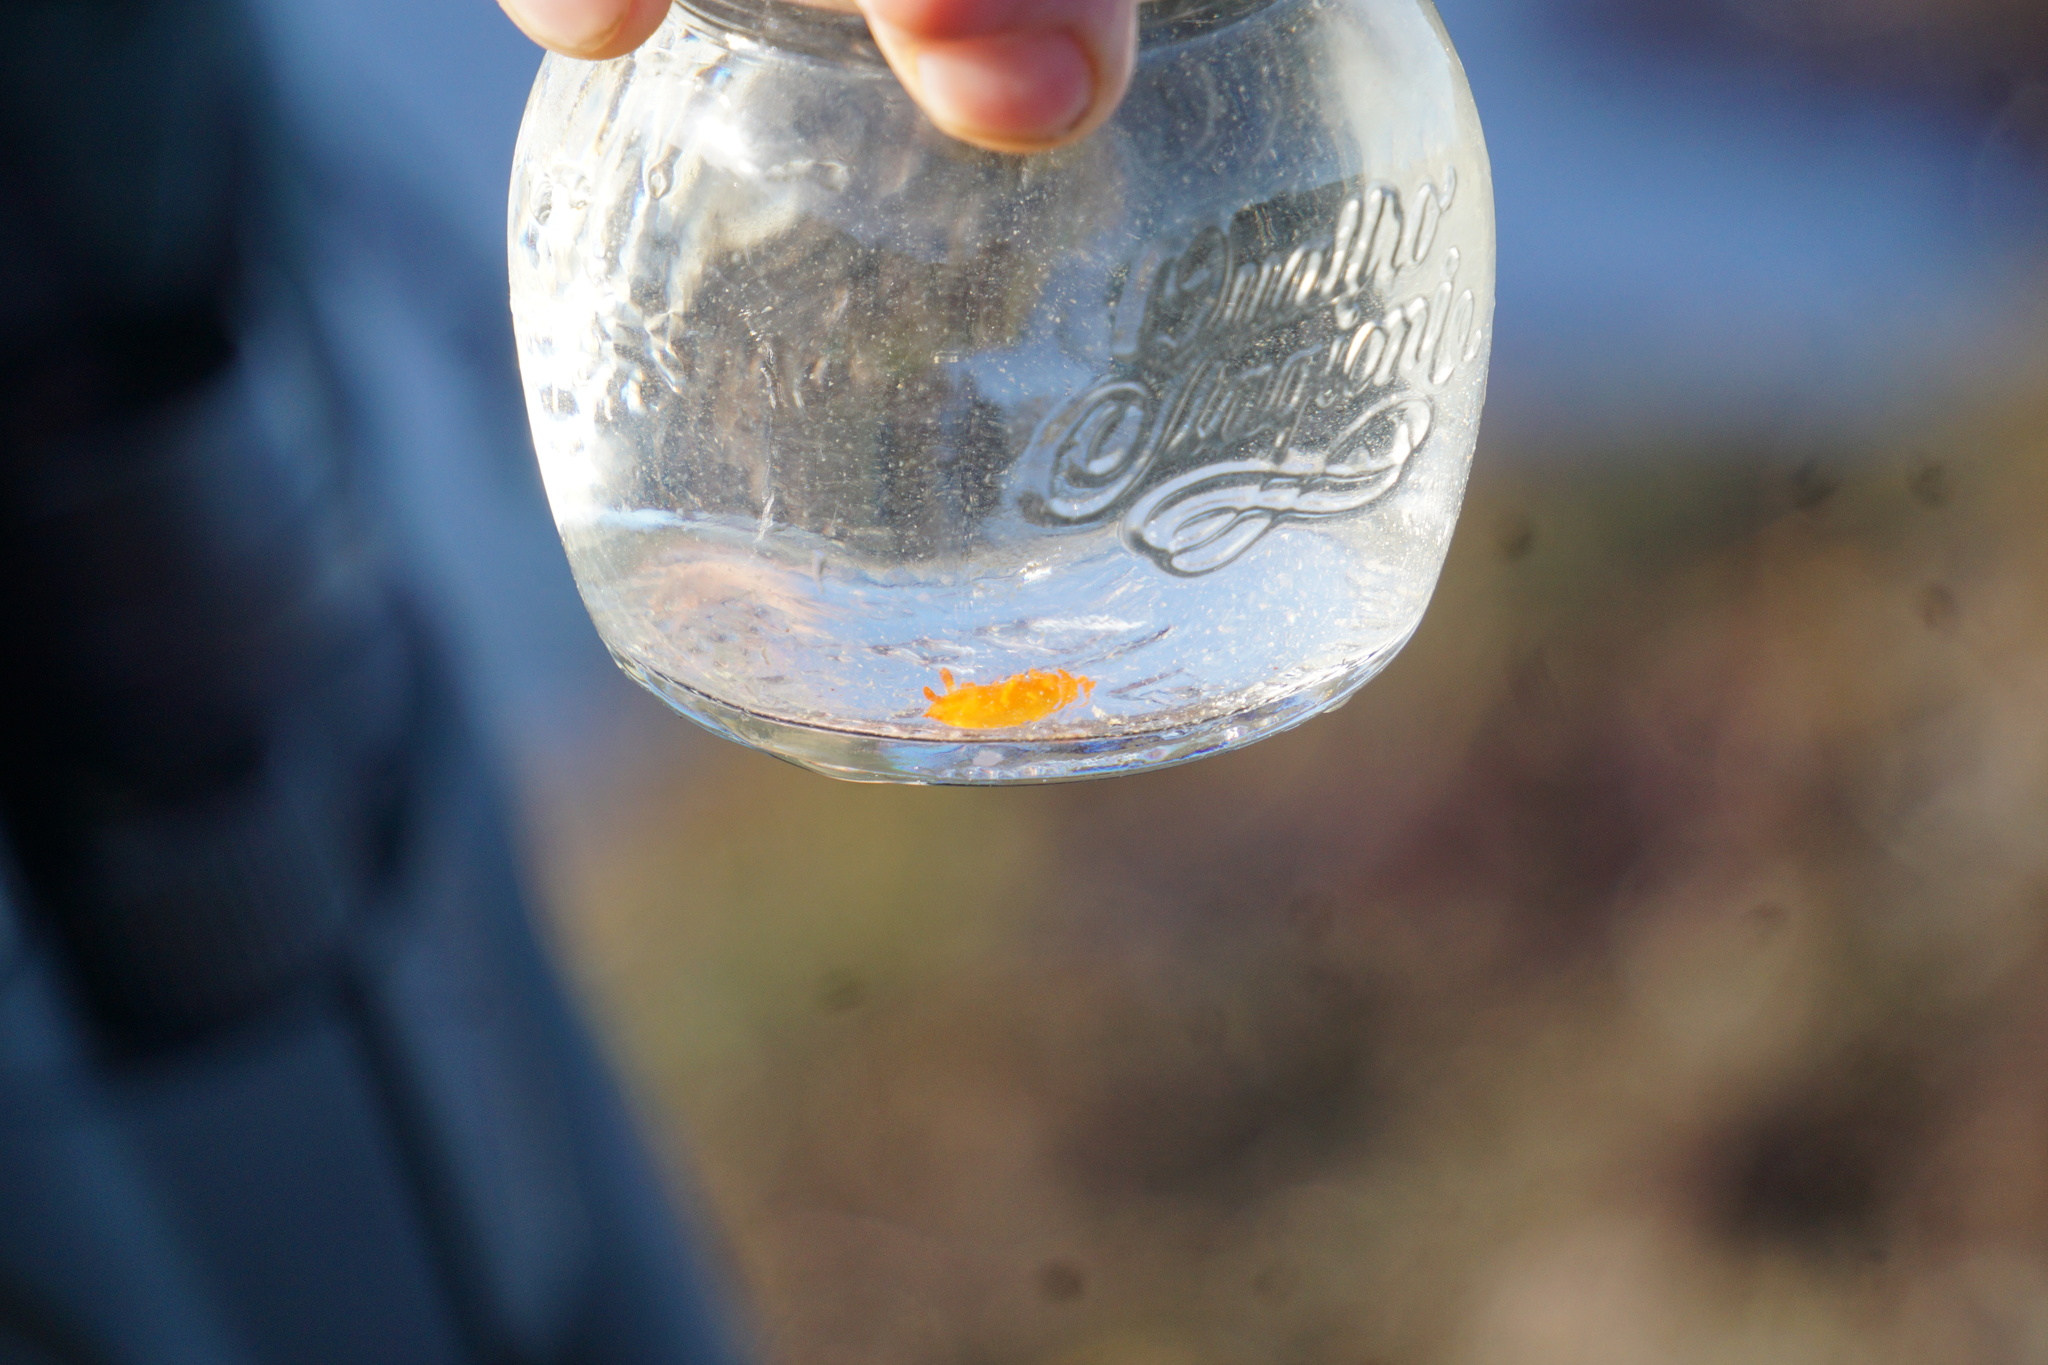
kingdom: Animalia
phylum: Mollusca
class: Gastropoda
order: Nudibranchia
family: Polyceridae
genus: Triopha
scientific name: Triopha maculata
